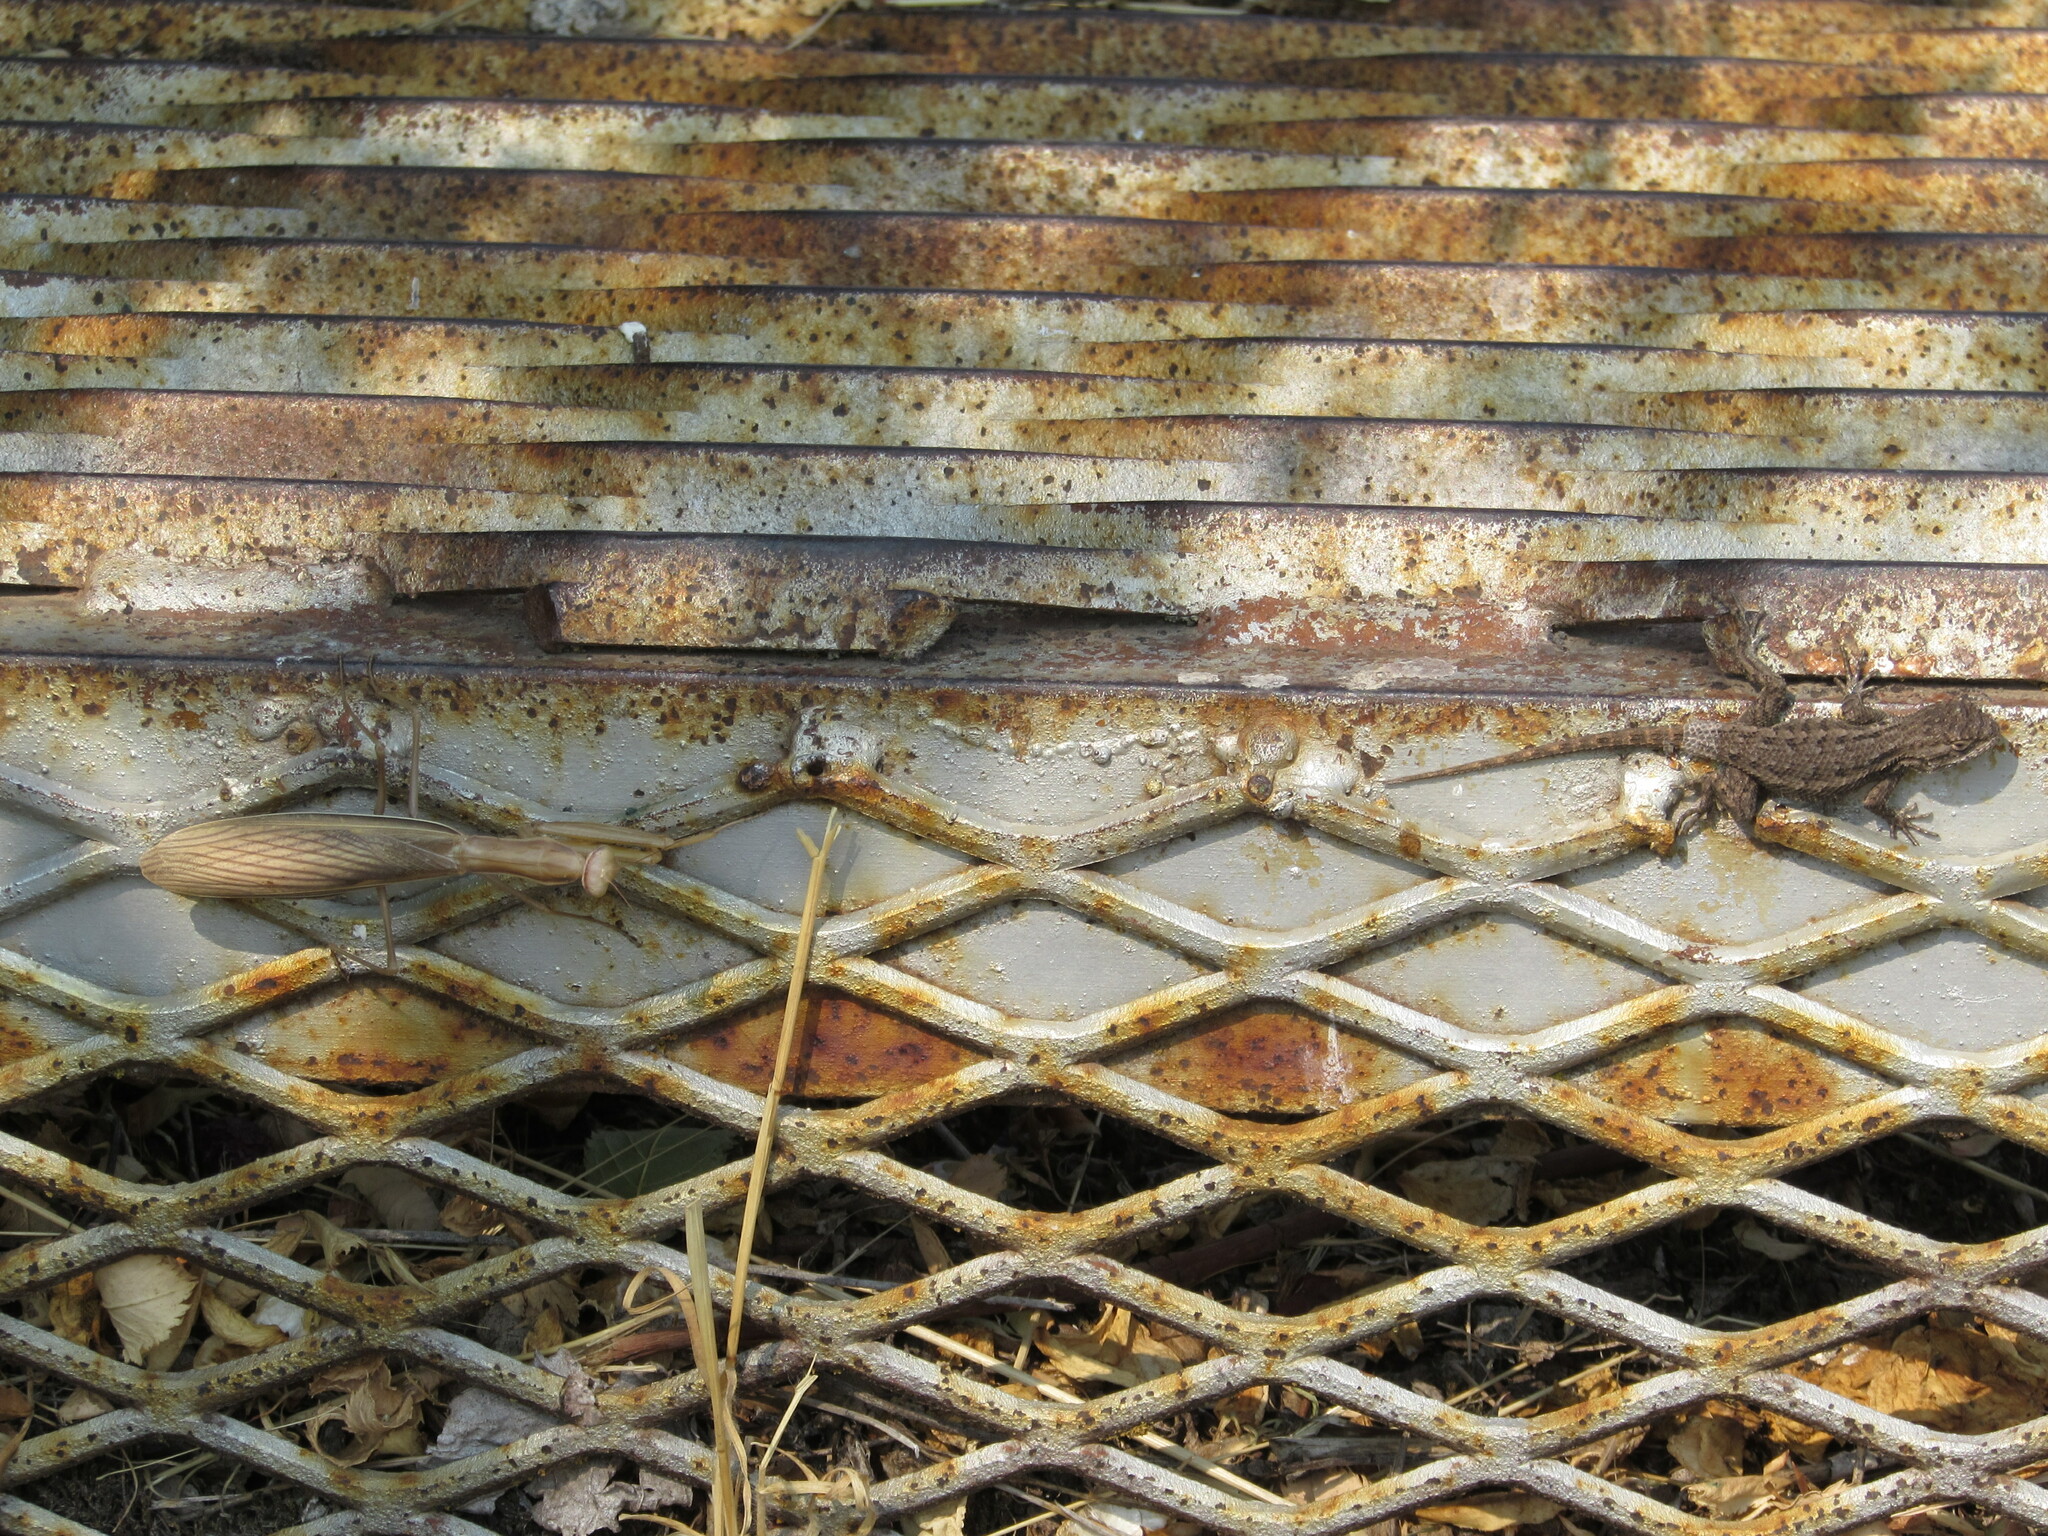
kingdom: Animalia
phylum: Arthropoda
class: Insecta
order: Mantodea
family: Mantidae
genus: Mantis
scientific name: Mantis religiosa
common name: Praying mantis
